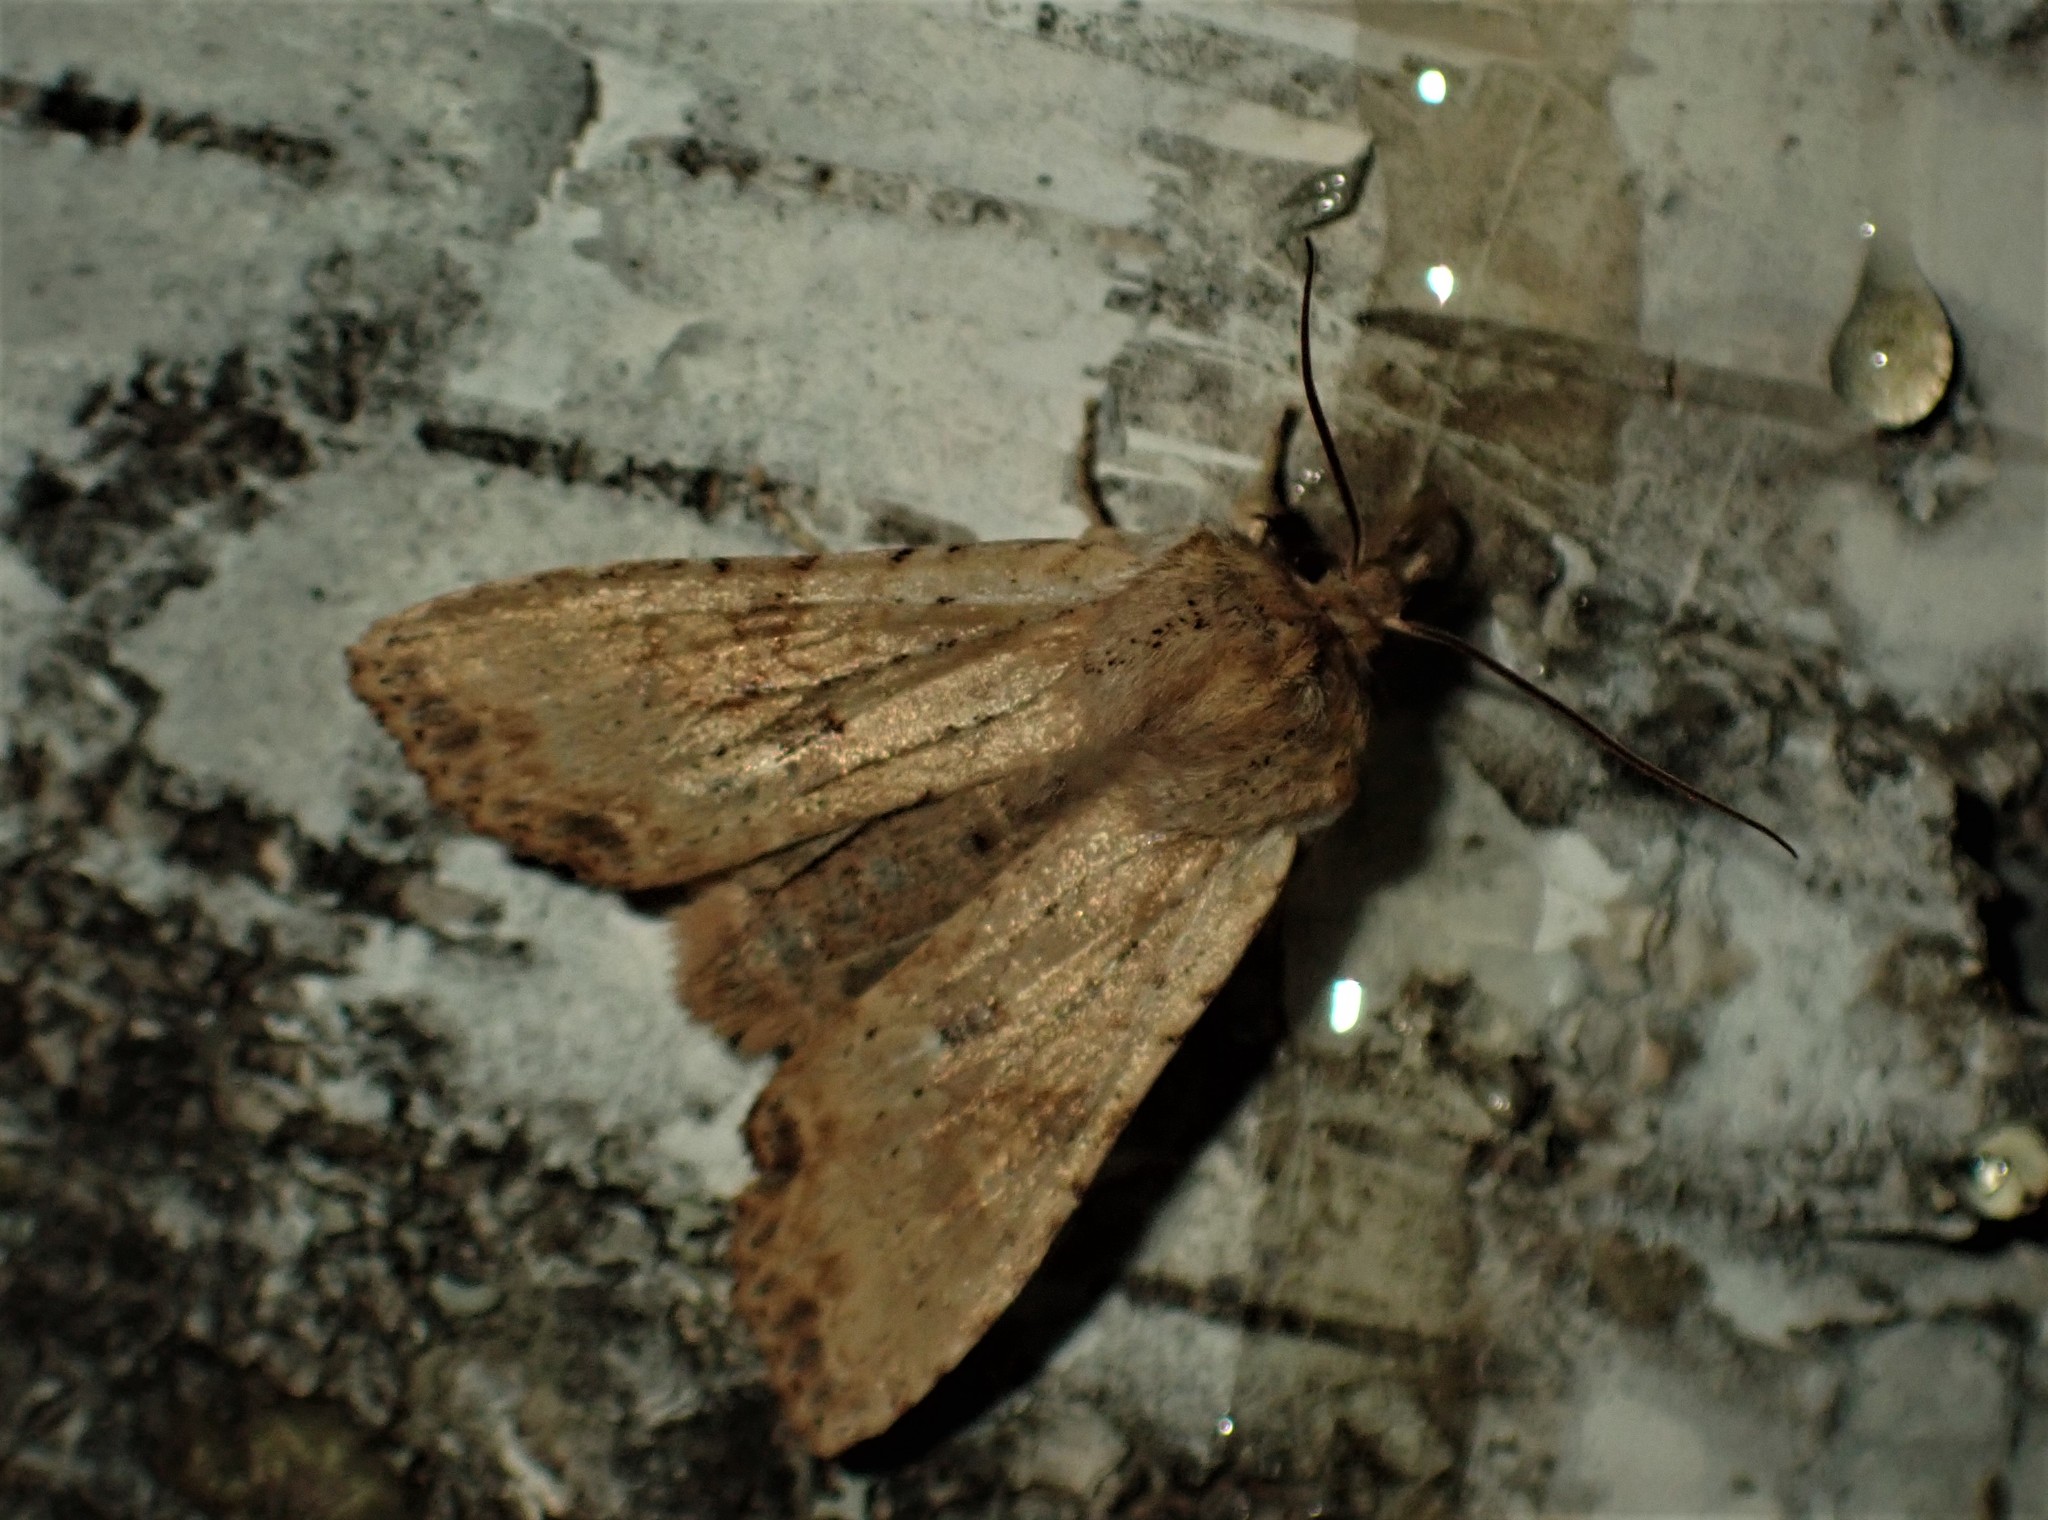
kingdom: Animalia
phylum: Arthropoda
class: Insecta
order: Lepidoptera
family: Noctuidae
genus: Lithophane
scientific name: Lithophane innominata
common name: Nameless pinion moth
